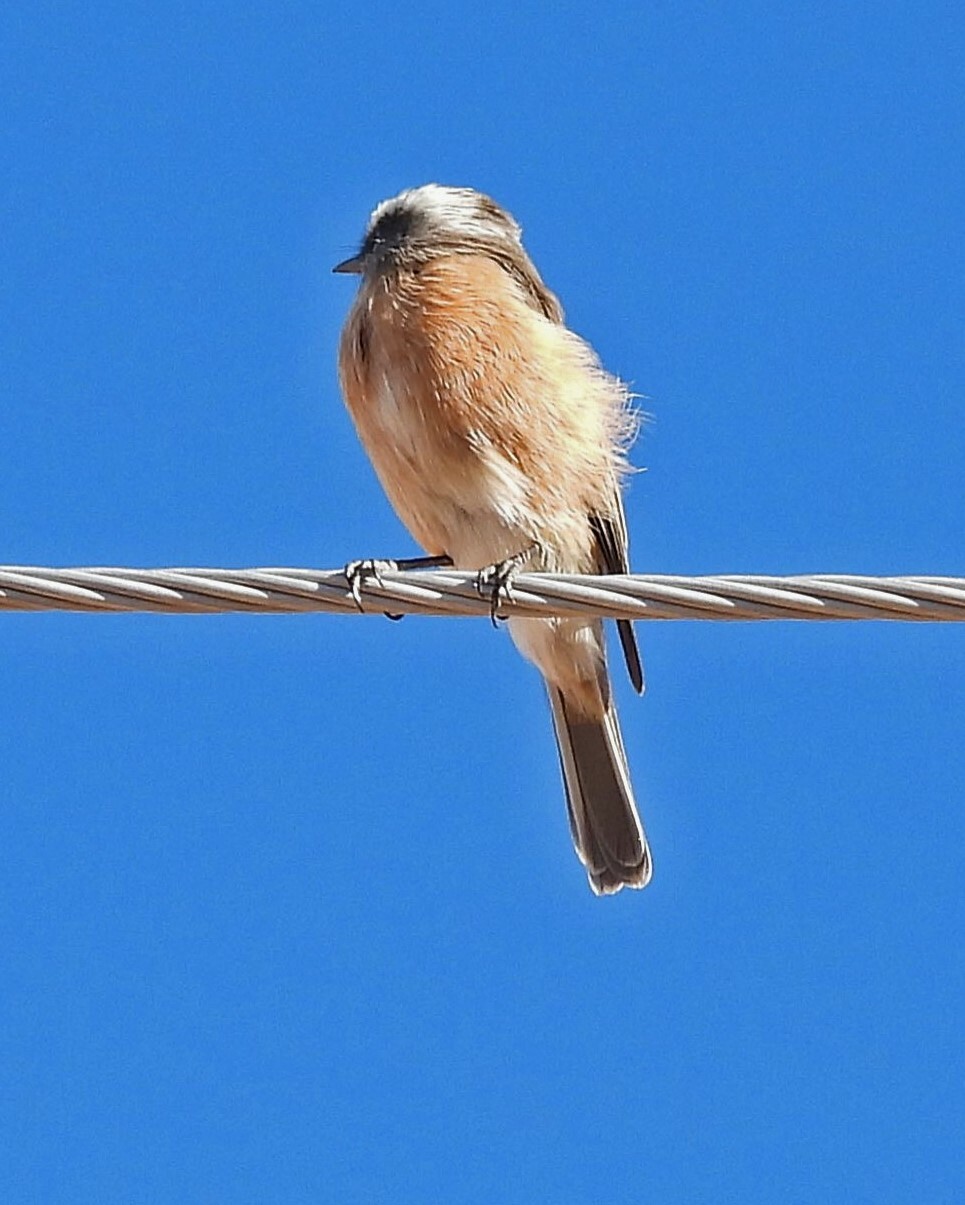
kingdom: Animalia
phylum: Chordata
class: Aves
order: Passeriformes
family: Tyrannidae
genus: Ochthoeca
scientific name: Ochthoeca oenanthoides
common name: D'orbigny's chat-tyrant
